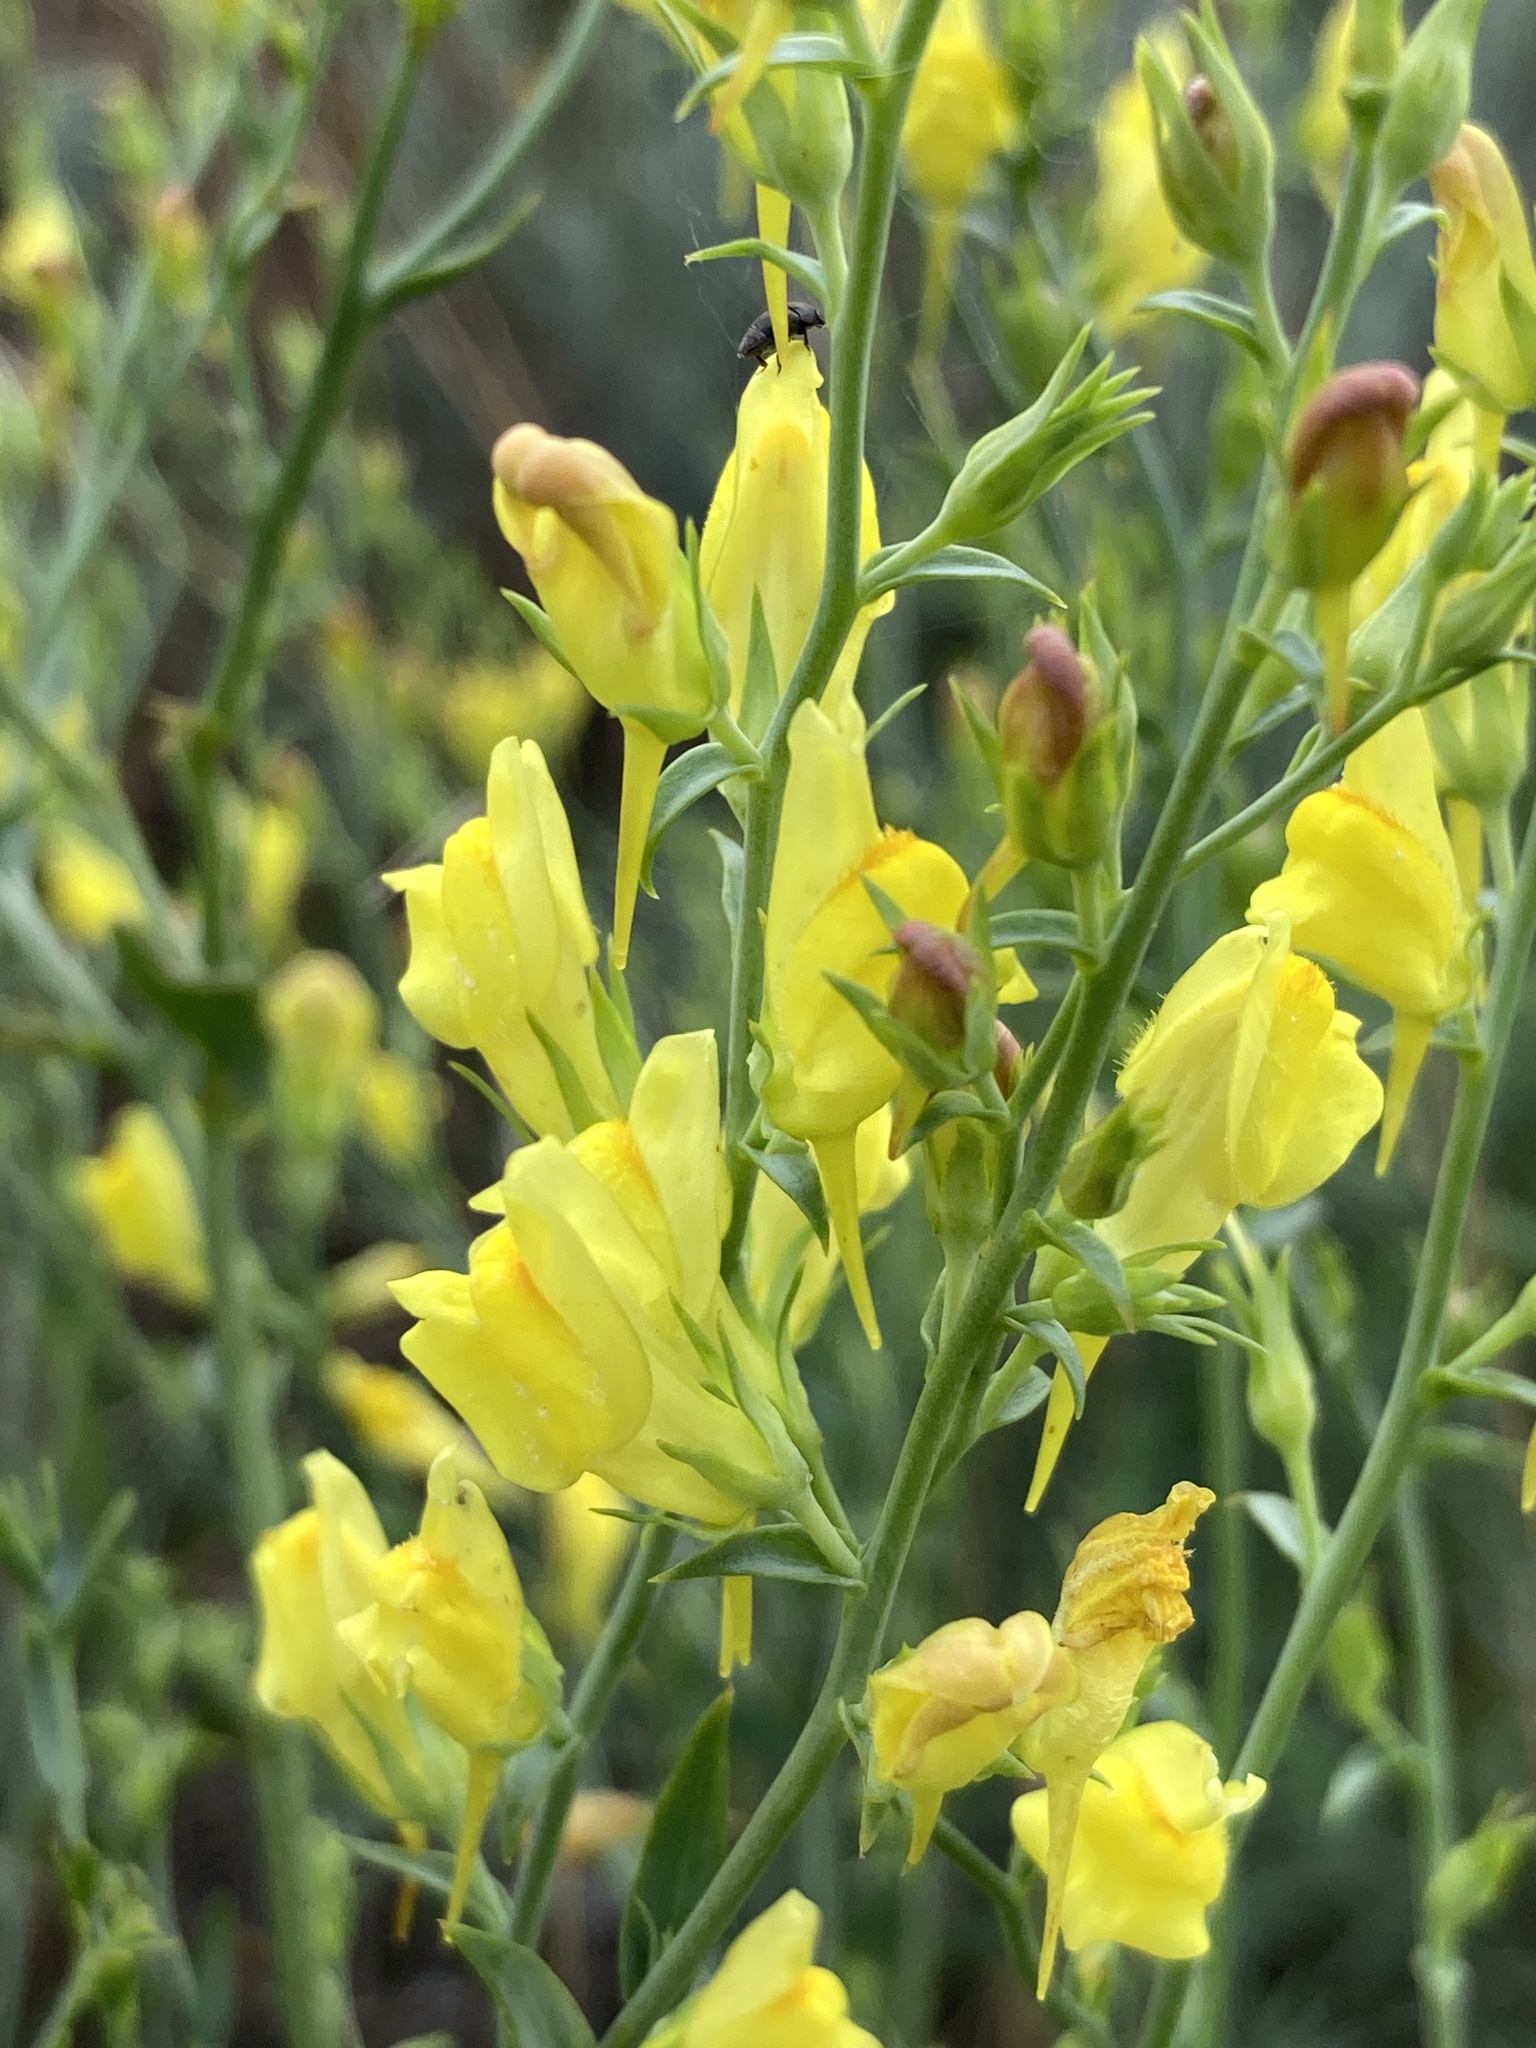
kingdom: Plantae
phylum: Tracheophyta
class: Magnoliopsida
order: Lamiales
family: Plantaginaceae
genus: Linaria
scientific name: Linaria genistifolia
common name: Broomleaf toadflax
